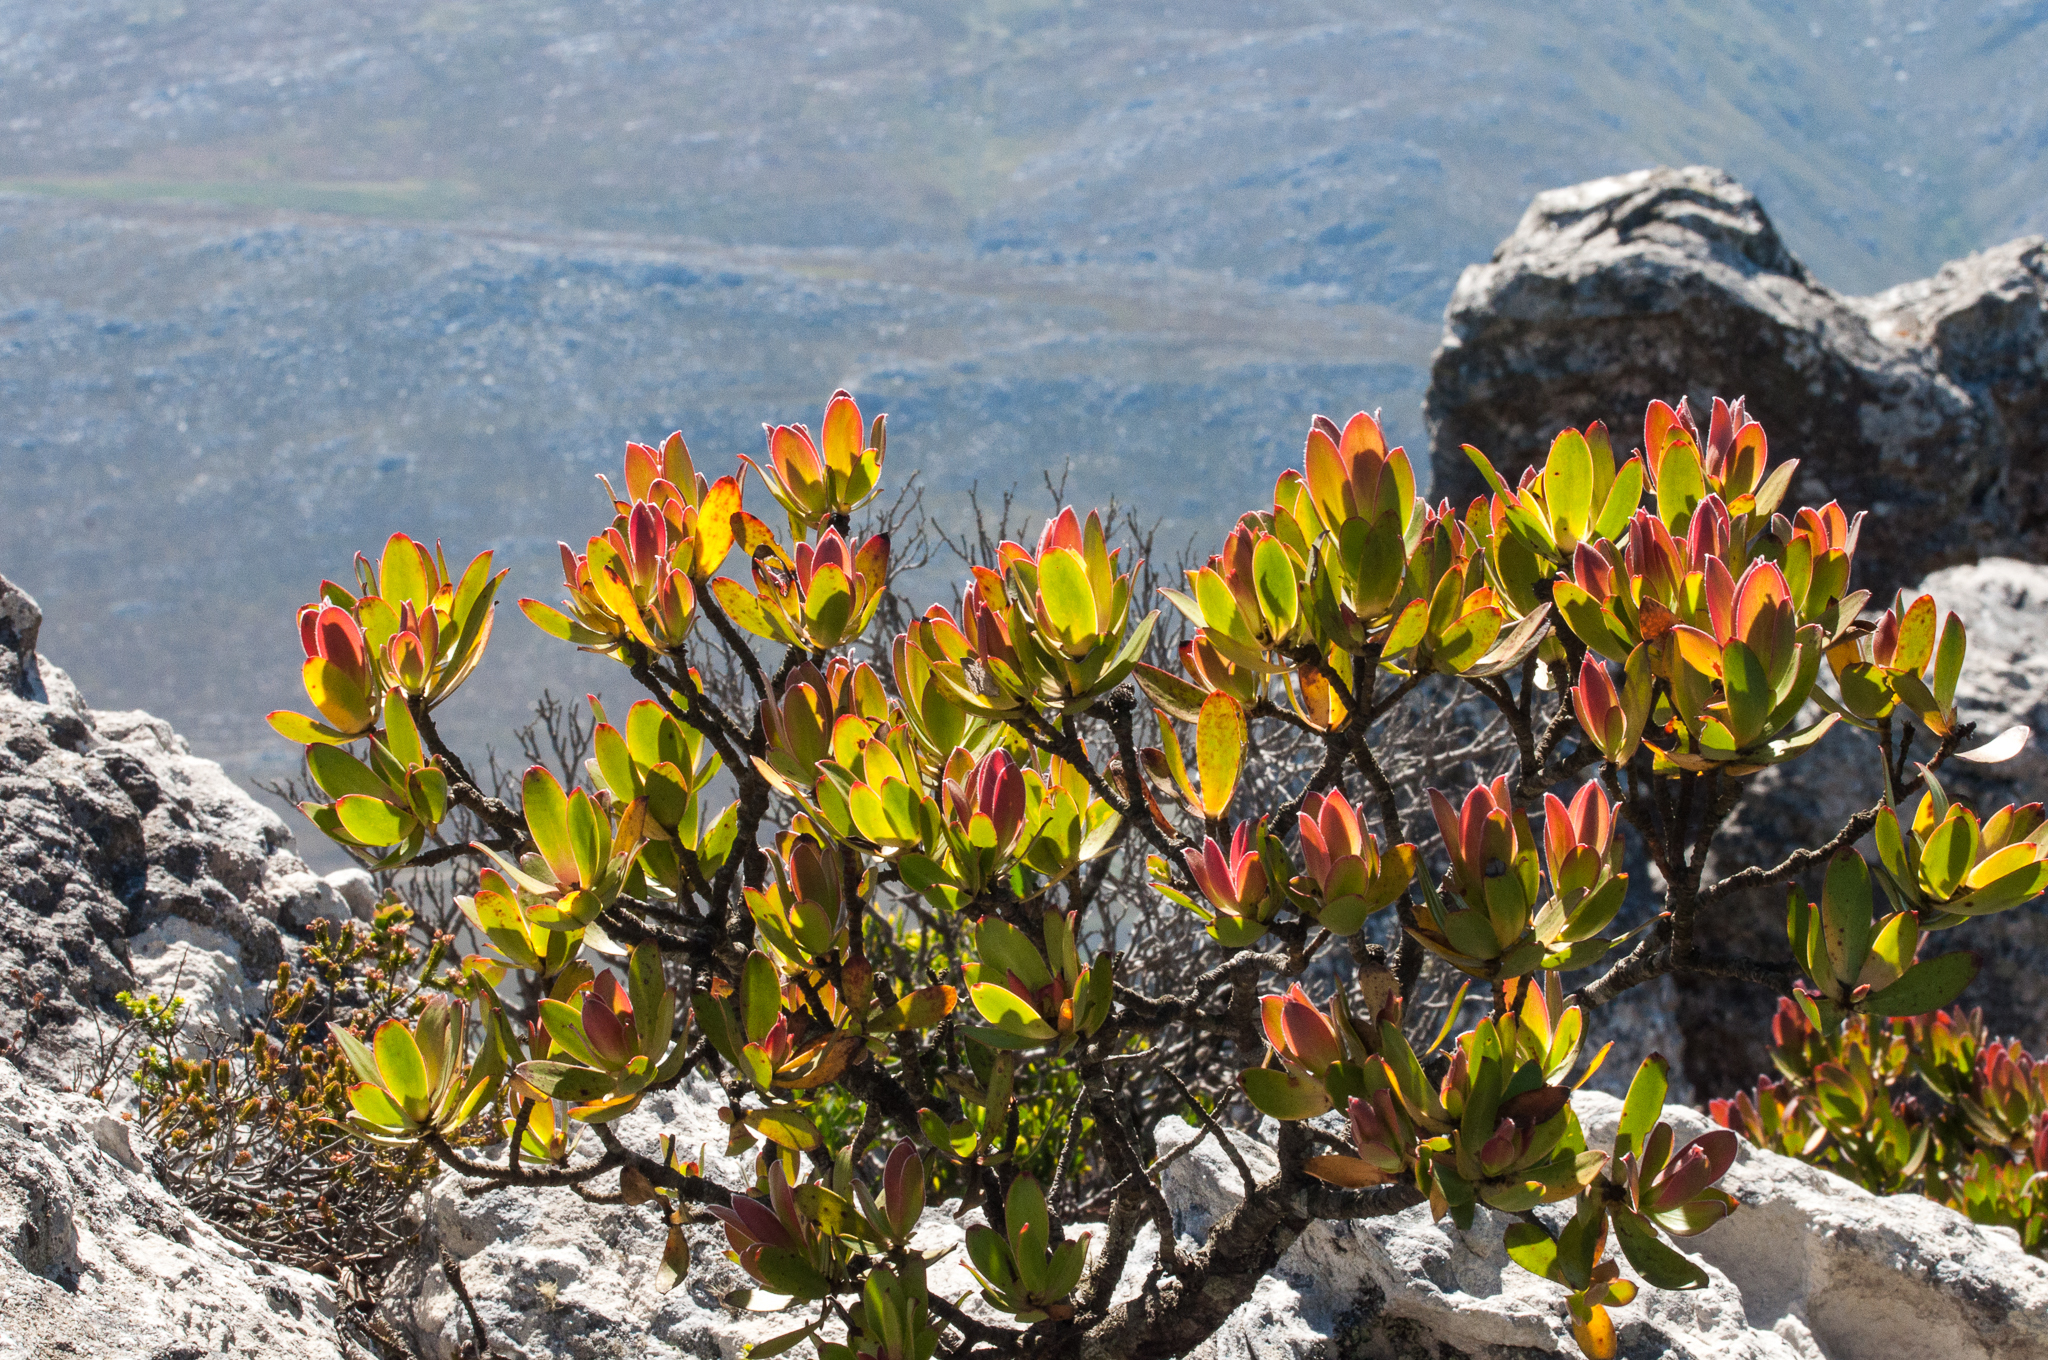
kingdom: Plantae
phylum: Tracheophyta
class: Magnoliopsida
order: Proteales
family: Proteaceae
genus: Leucadendron
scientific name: Leucadendron gandogeri
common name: Broad-leaf conebush
